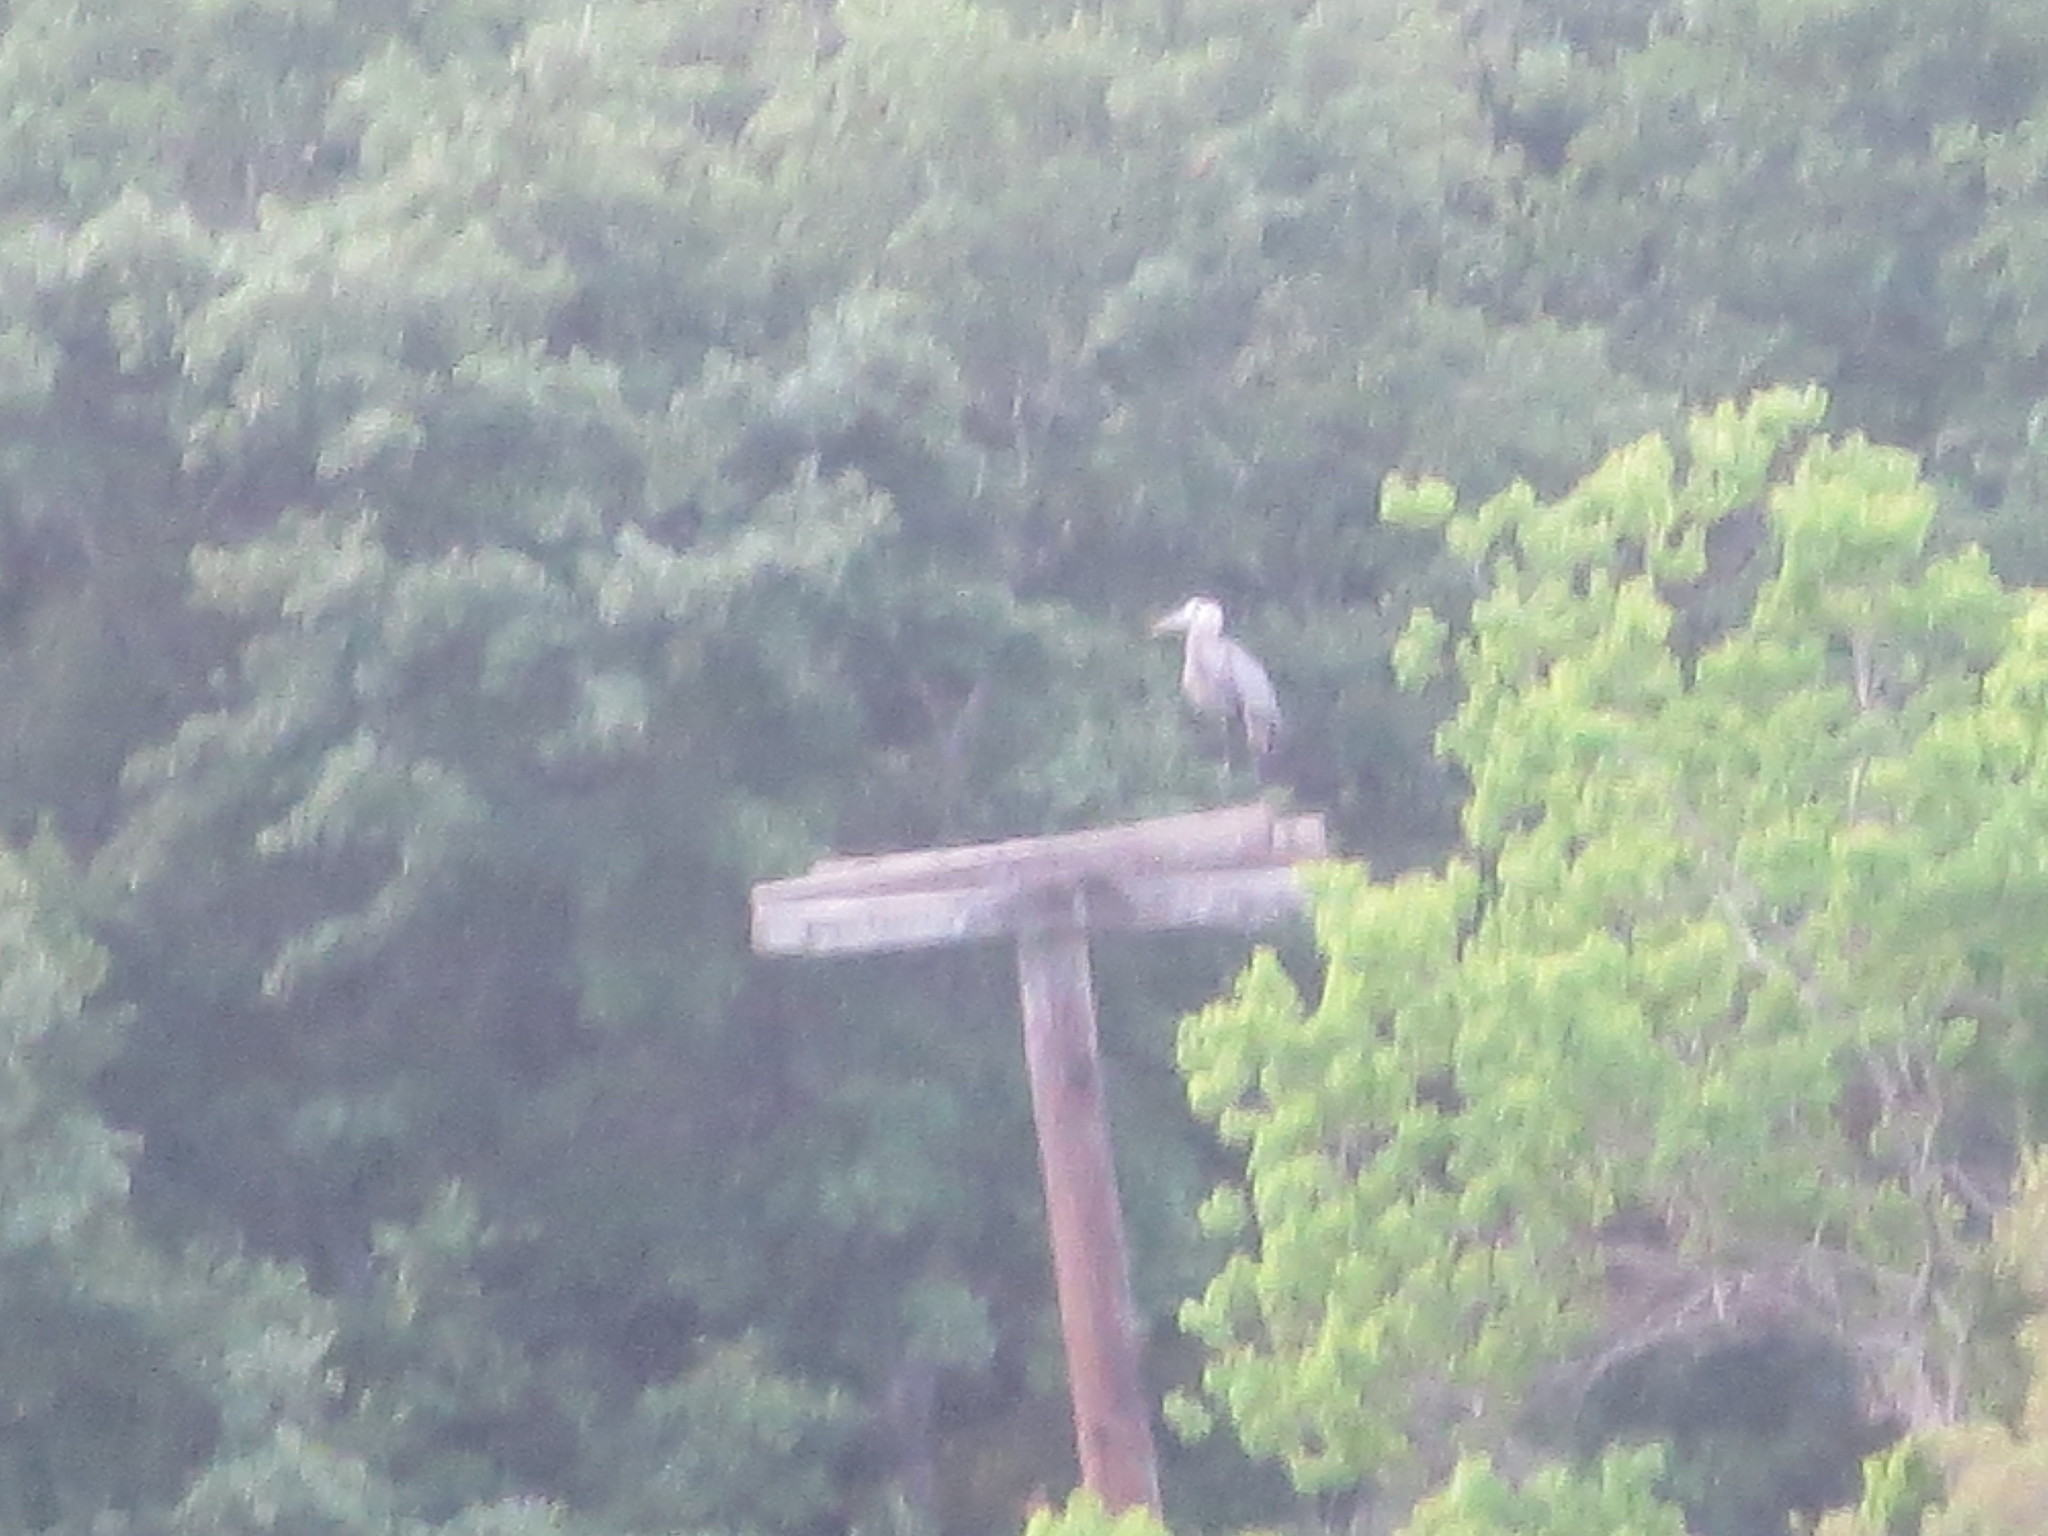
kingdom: Animalia
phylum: Chordata
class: Aves
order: Pelecaniformes
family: Ardeidae
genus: Ardea
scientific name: Ardea herodias
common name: Great blue heron
